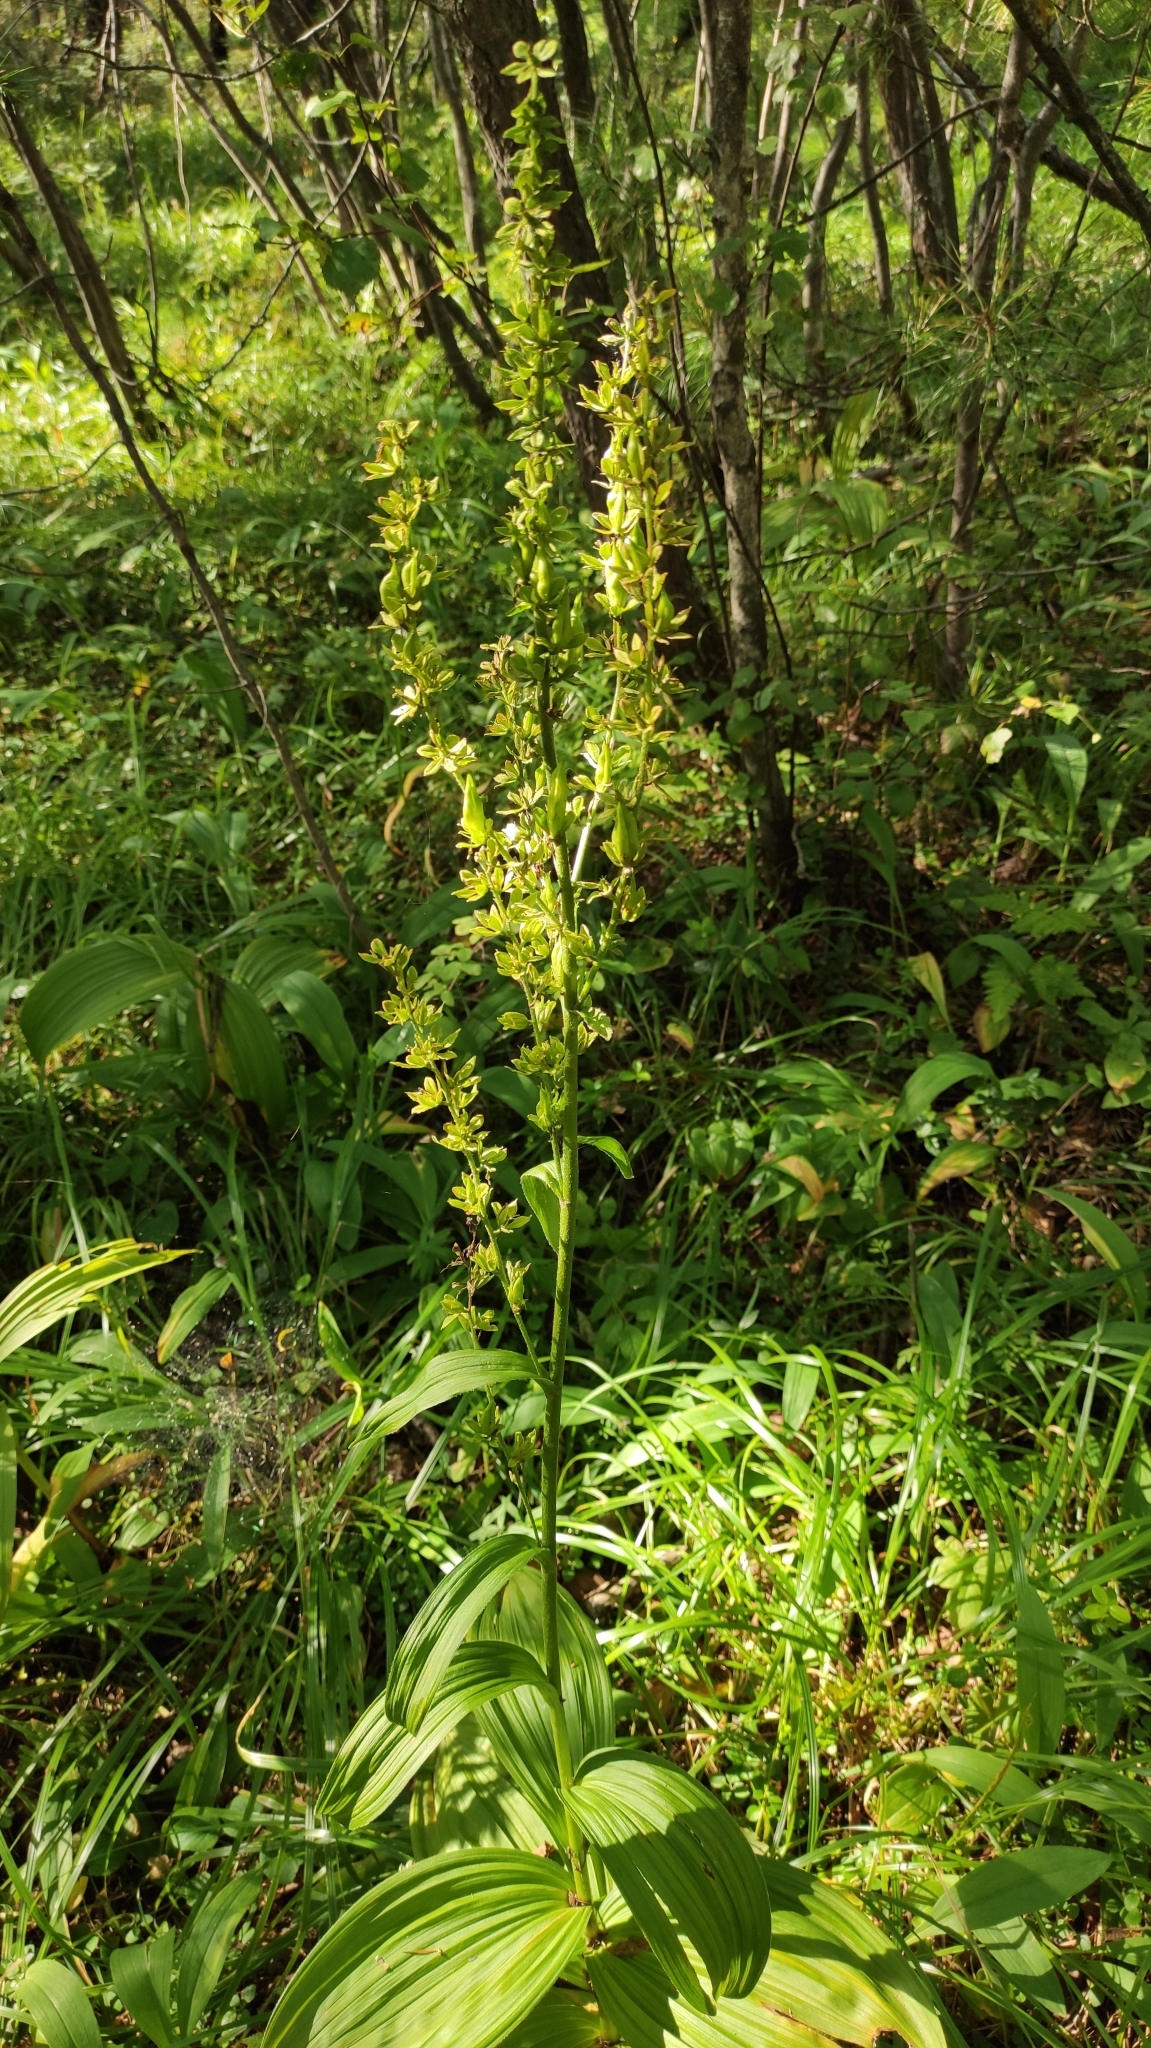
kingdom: Plantae
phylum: Tracheophyta
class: Liliopsida
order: Liliales
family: Melanthiaceae
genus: Veratrum
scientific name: Veratrum lobelianum
